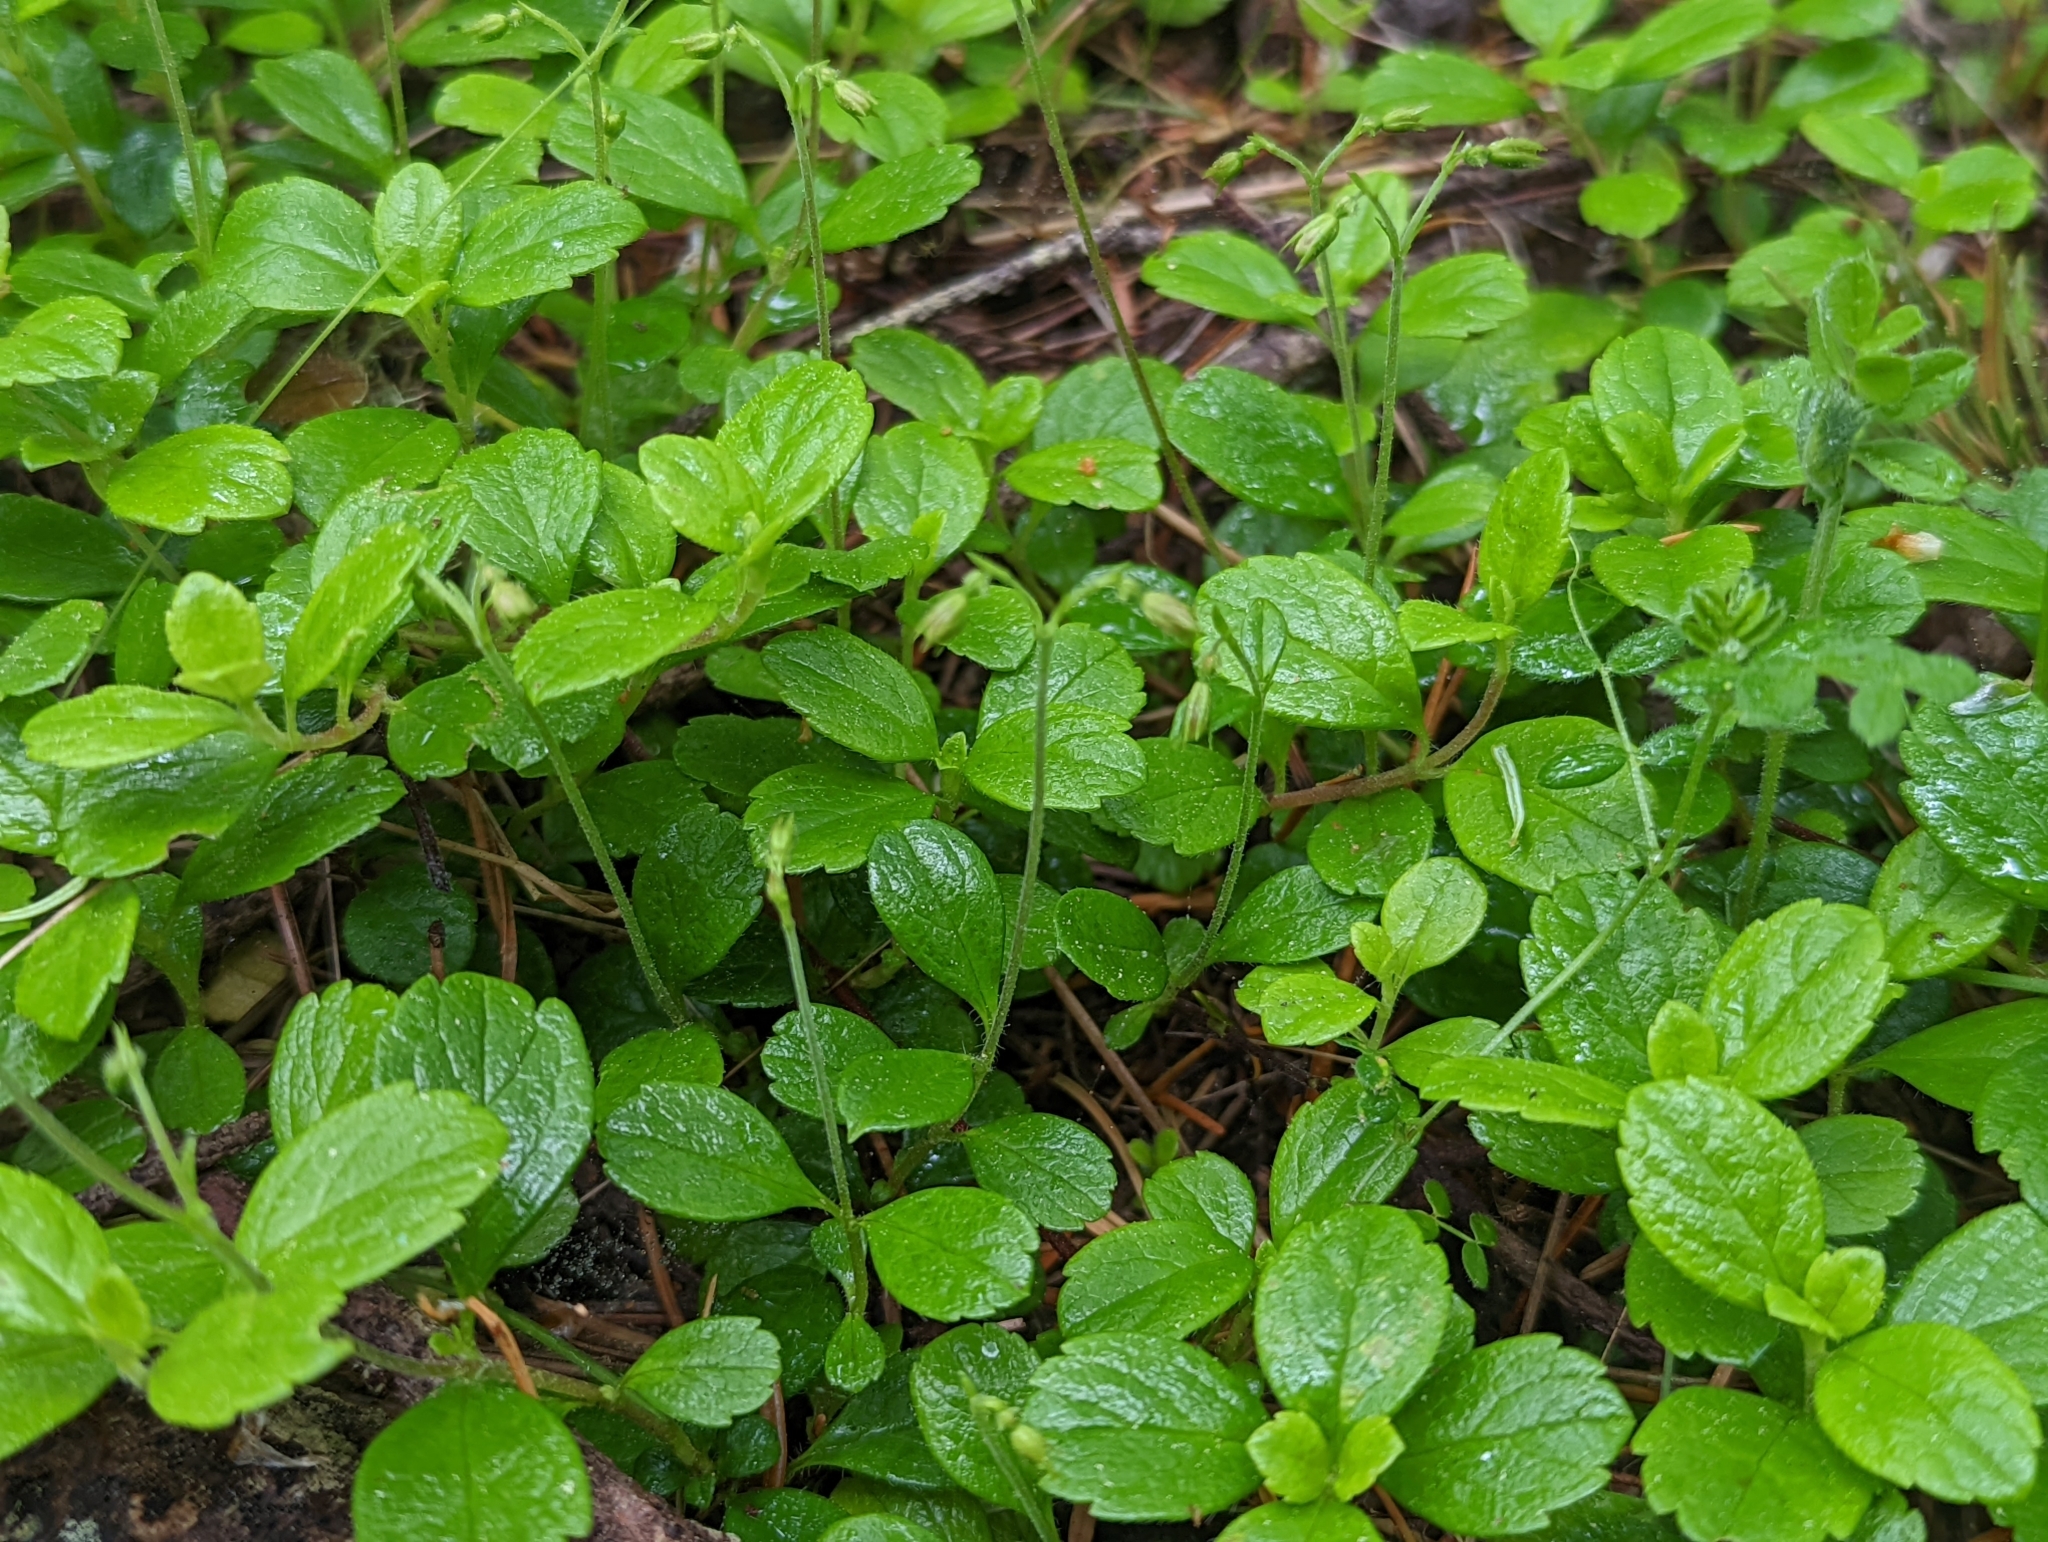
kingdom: Plantae
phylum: Tracheophyta
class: Magnoliopsida
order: Dipsacales
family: Caprifoliaceae
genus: Linnaea
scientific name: Linnaea borealis
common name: Twinflower
